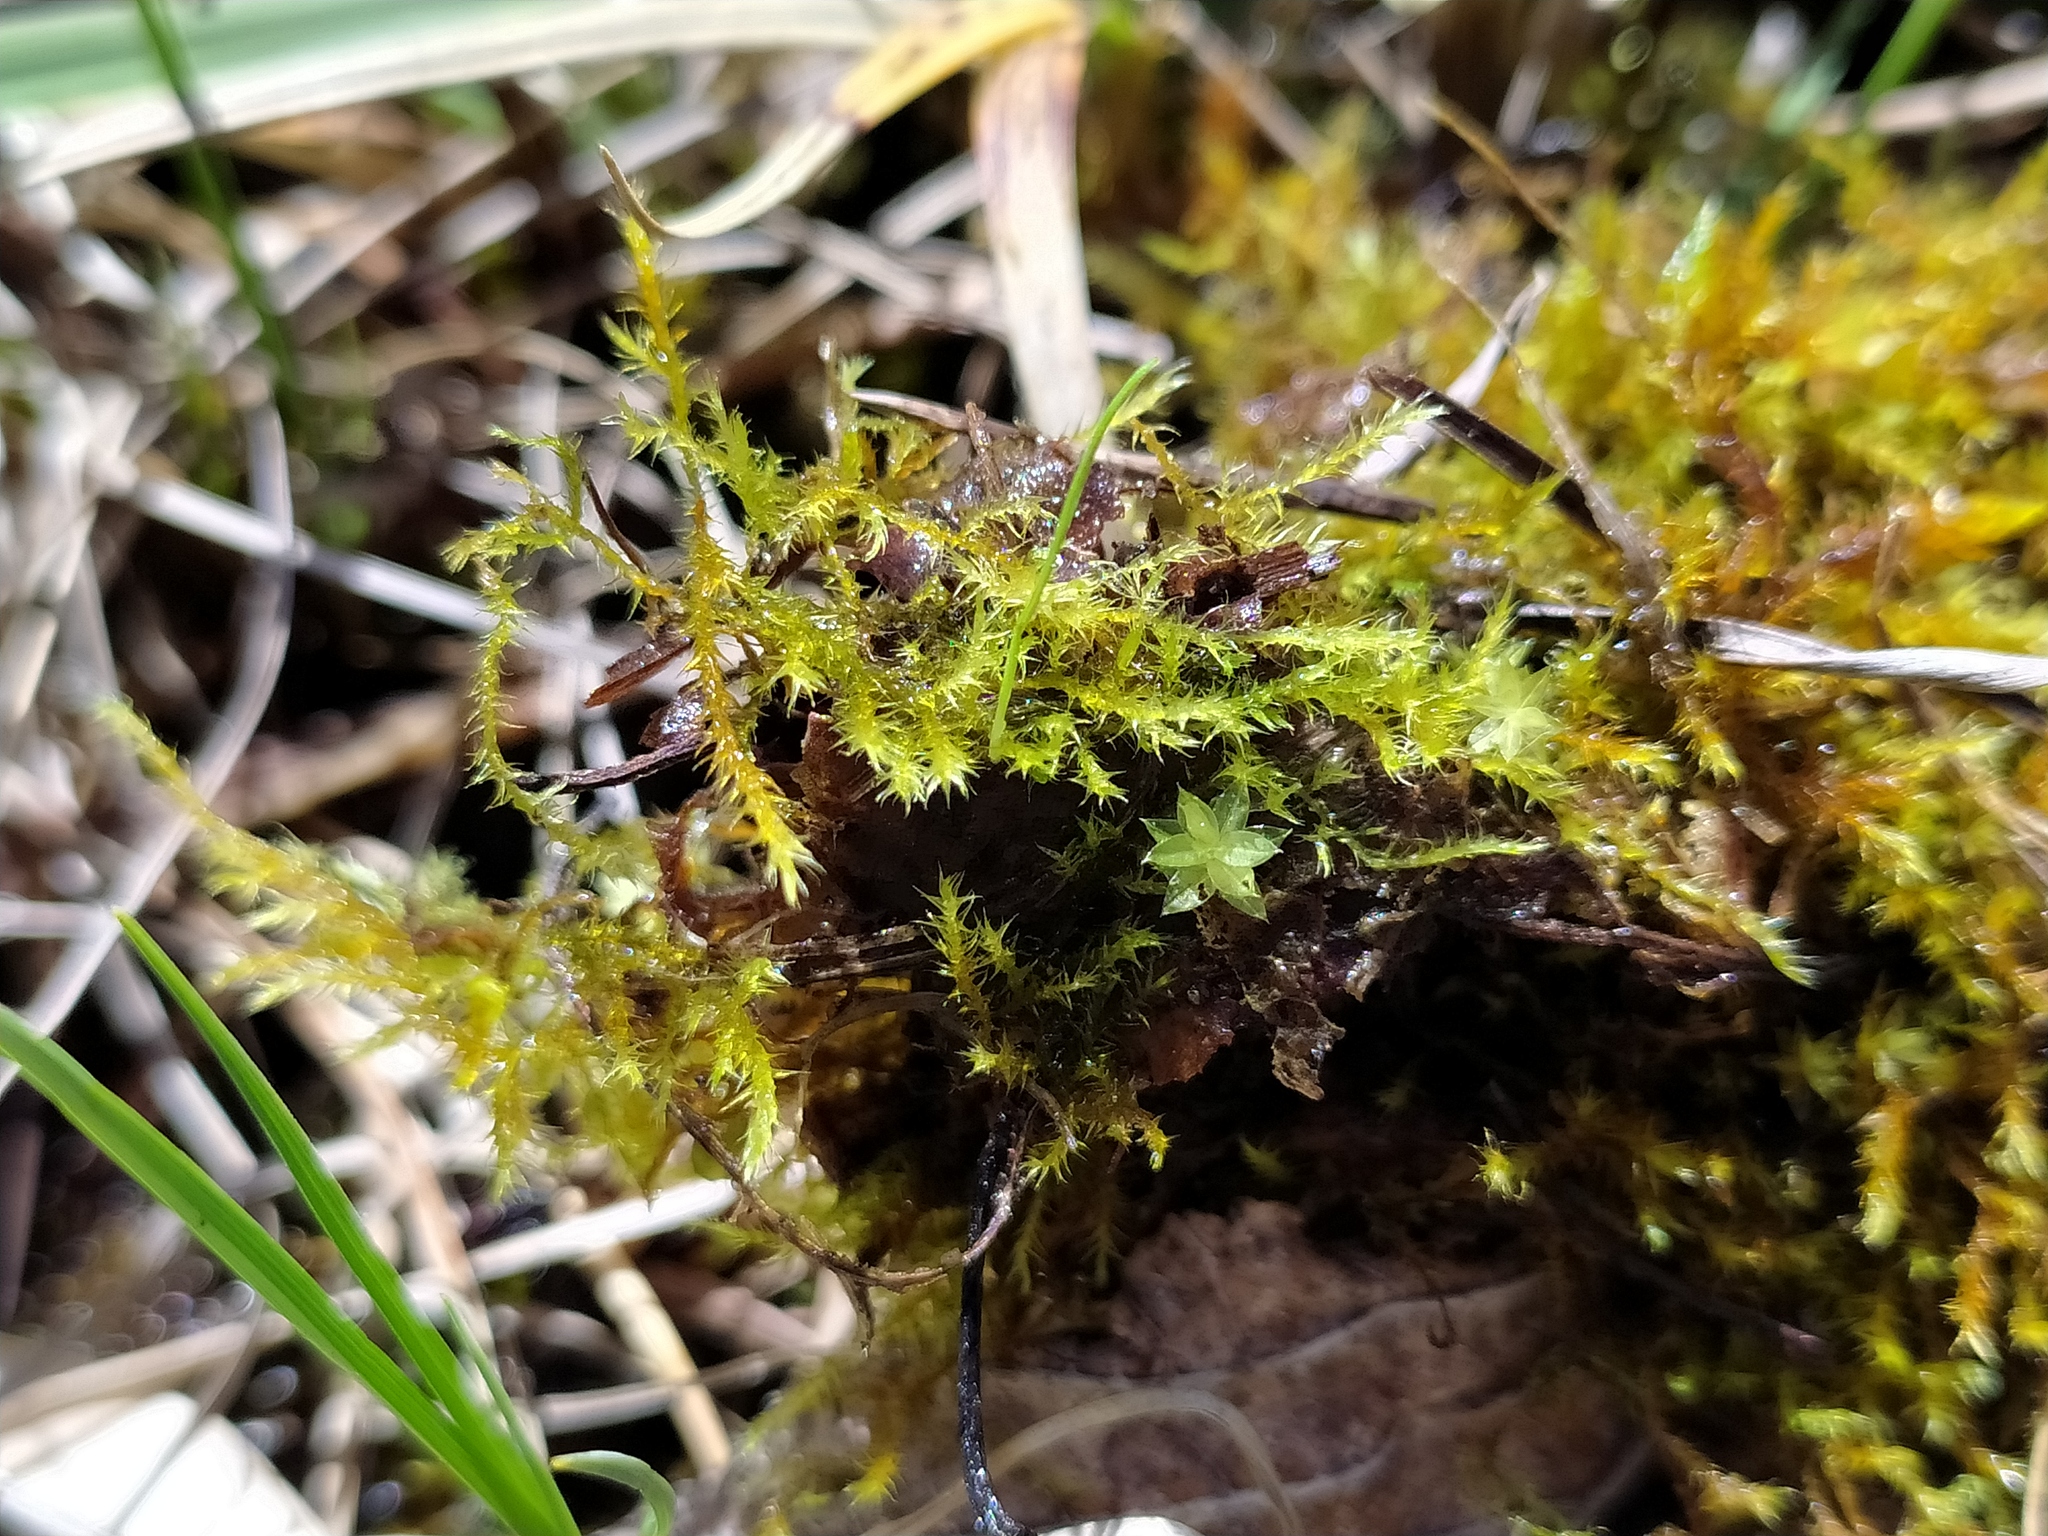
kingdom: Plantae
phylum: Bryophyta
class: Bryopsida
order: Hypnales
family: Amblystegiaceae
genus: Campylium
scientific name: Campylium stellatum
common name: Yellow starry fen moss
